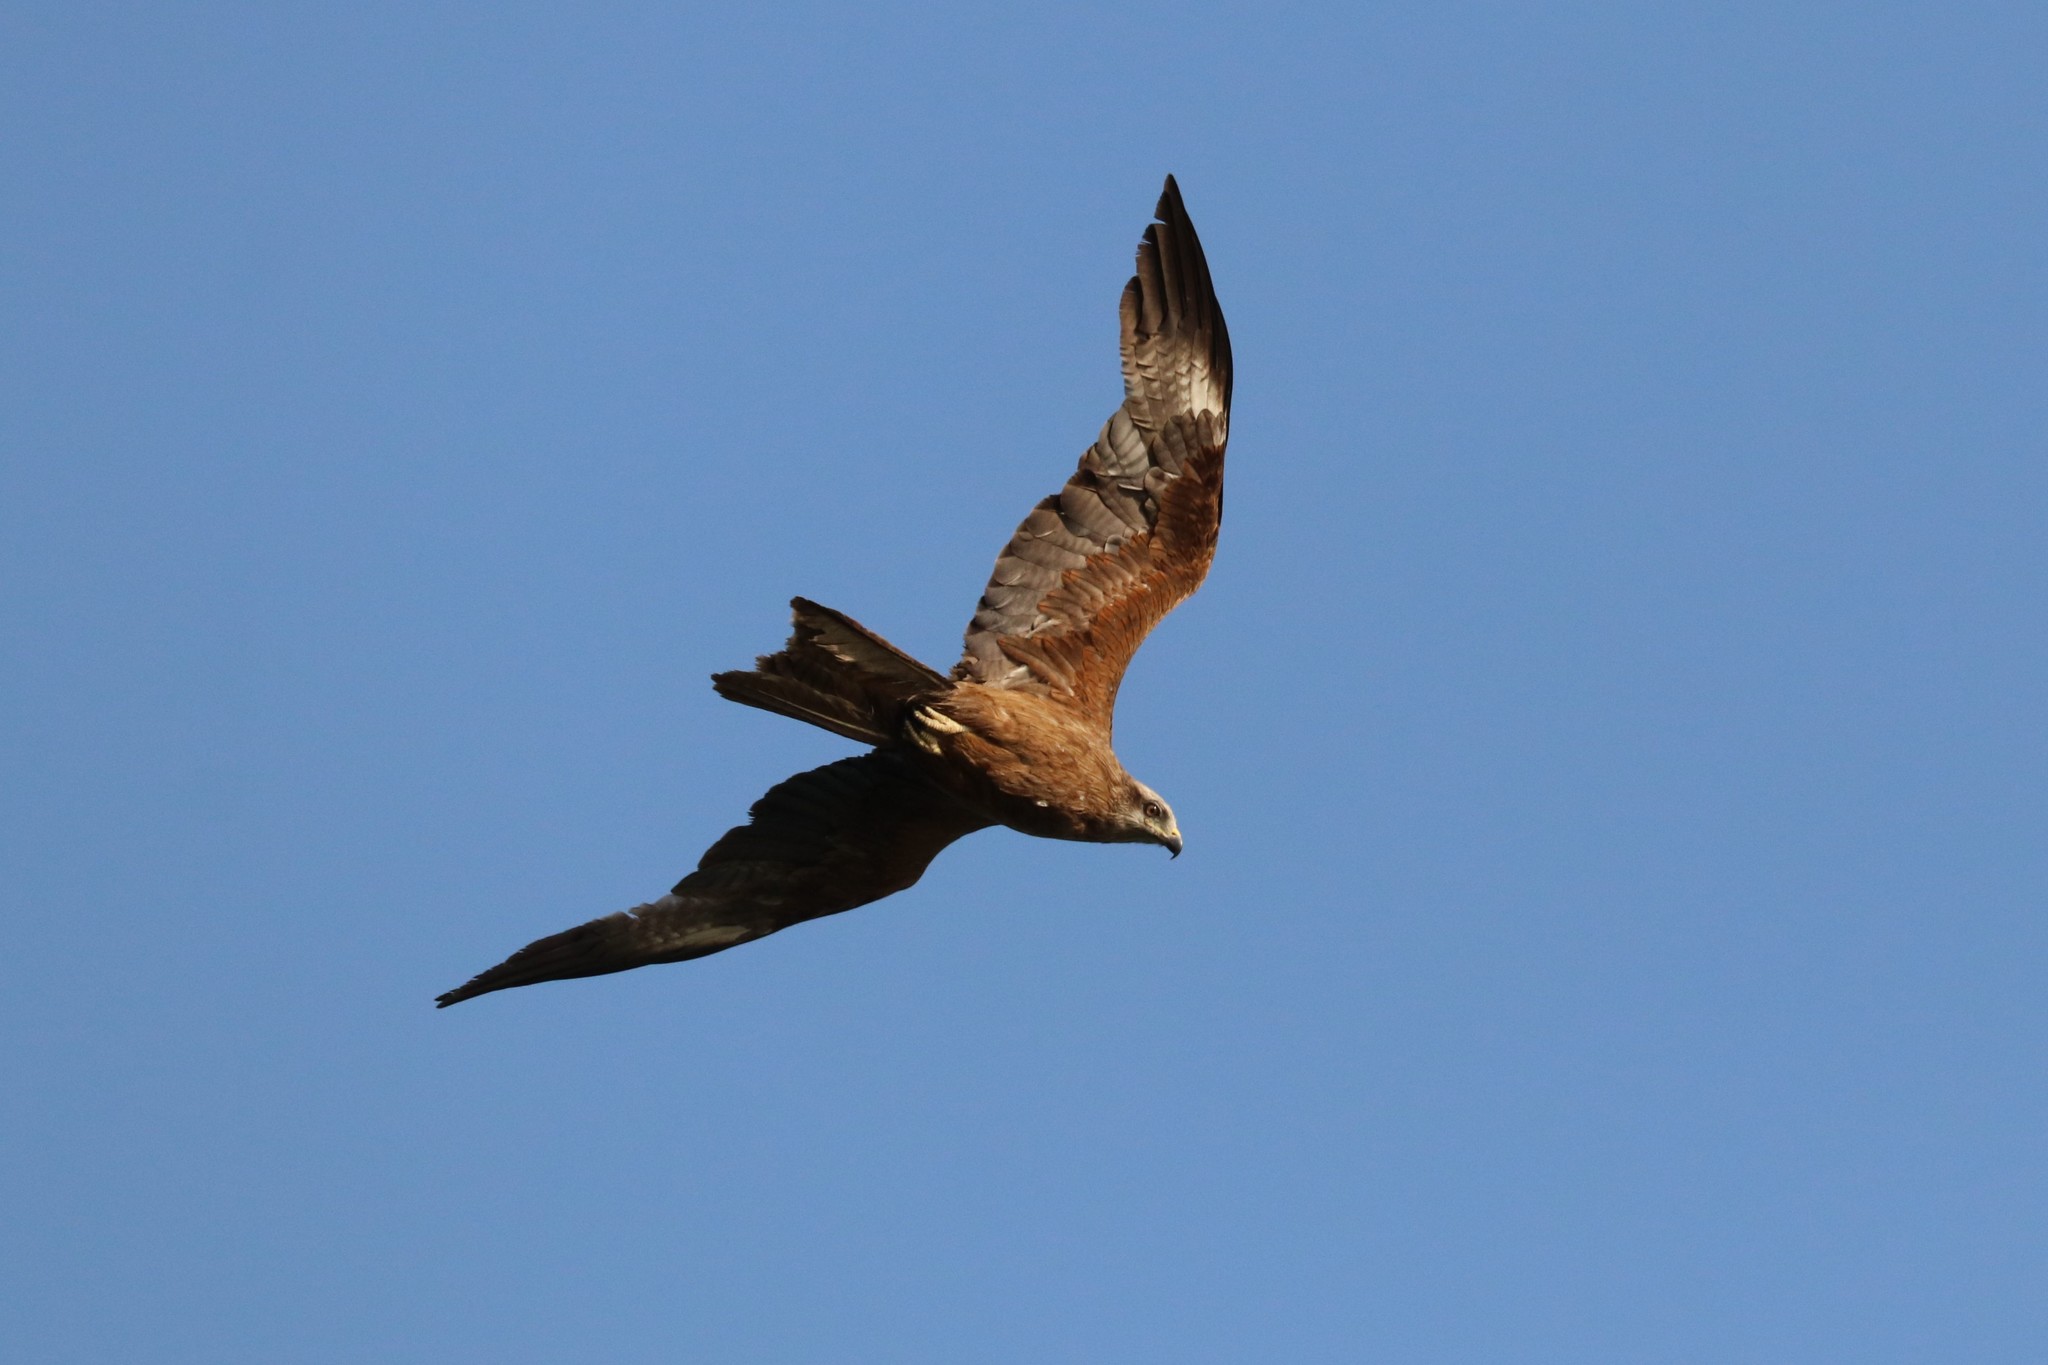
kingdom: Animalia
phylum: Chordata
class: Aves
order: Accipitriformes
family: Accipitridae
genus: Milvus
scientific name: Milvus migrans
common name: Black kite
